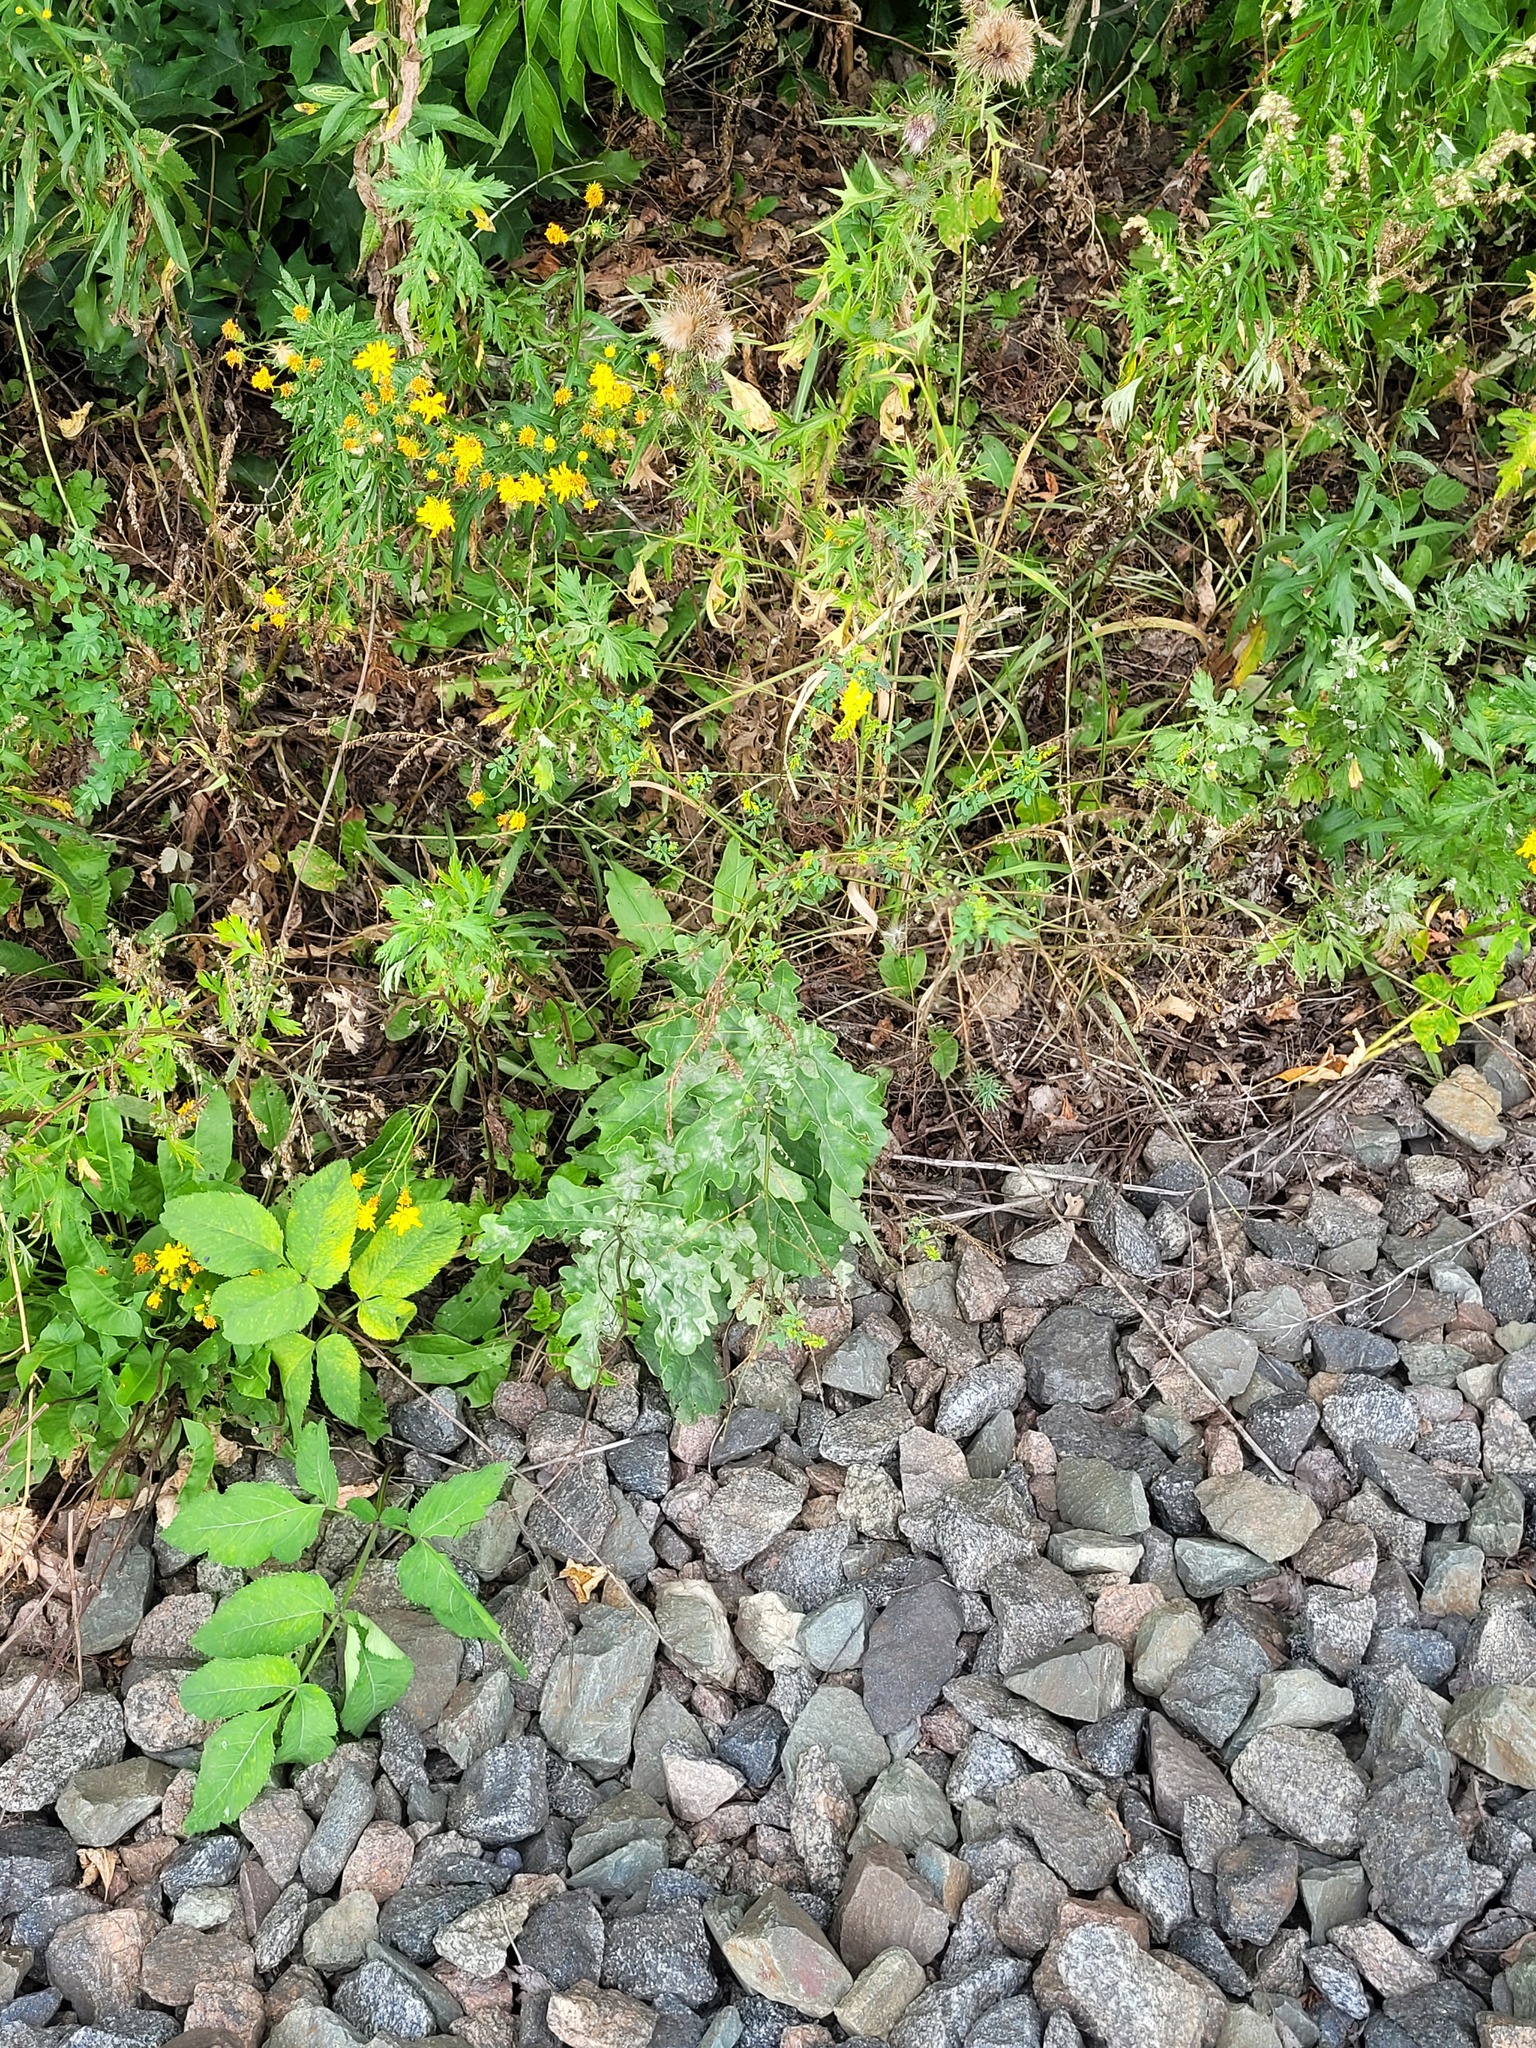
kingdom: Plantae
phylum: Tracheophyta
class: Magnoliopsida
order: Fagales
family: Fagaceae
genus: Quercus
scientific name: Quercus robur
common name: Pedunculate oak
